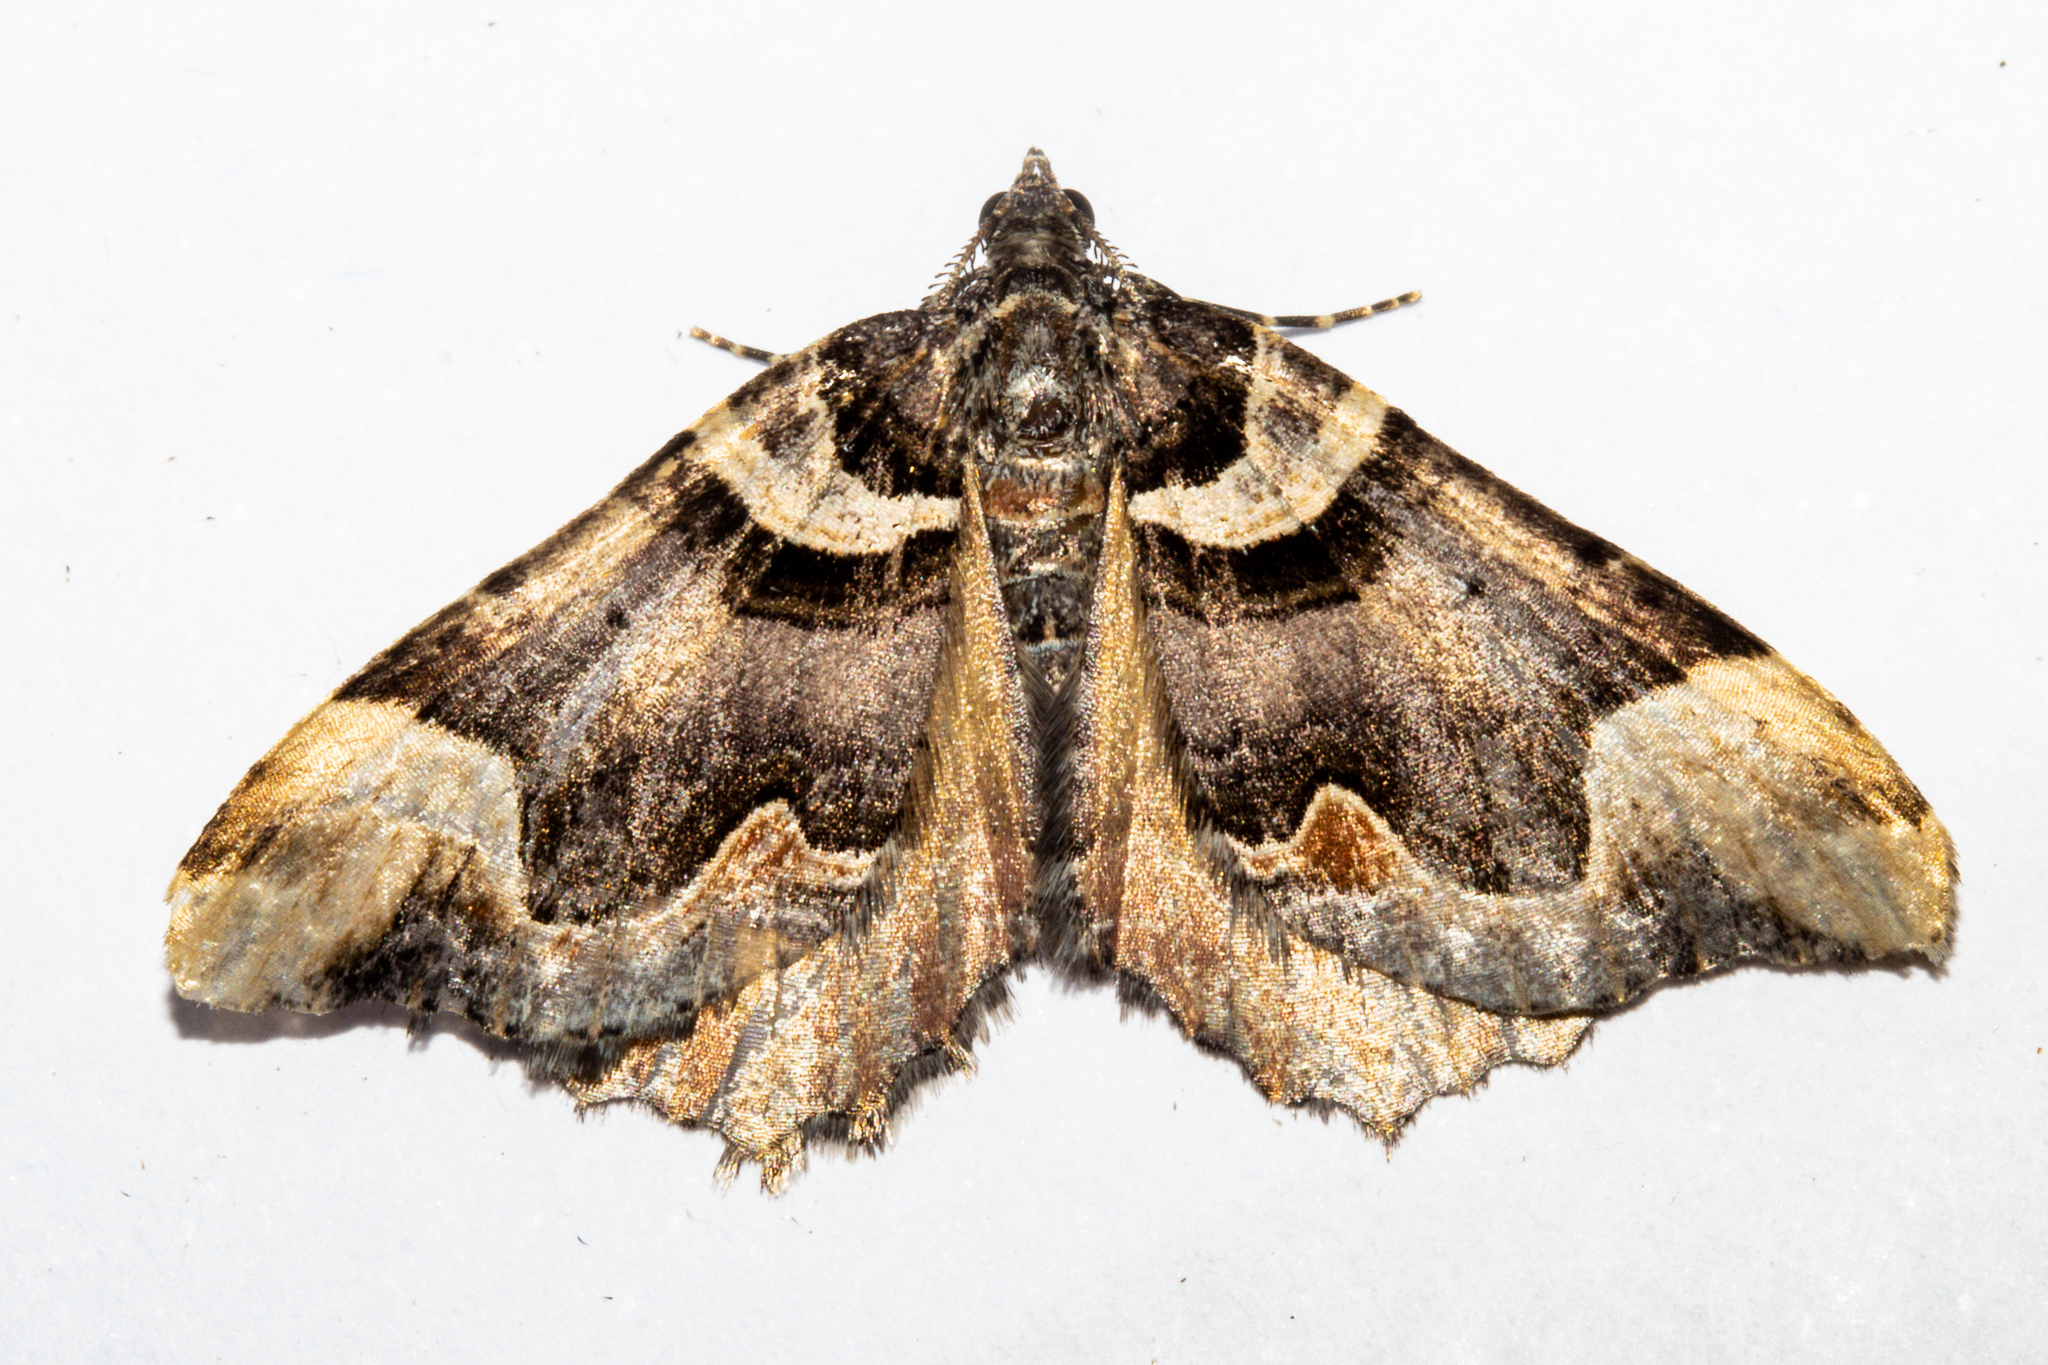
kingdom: Animalia
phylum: Arthropoda
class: Insecta
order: Lepidoptera
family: Geometridae
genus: Asaphodes
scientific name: Asaphodes chlamydota
